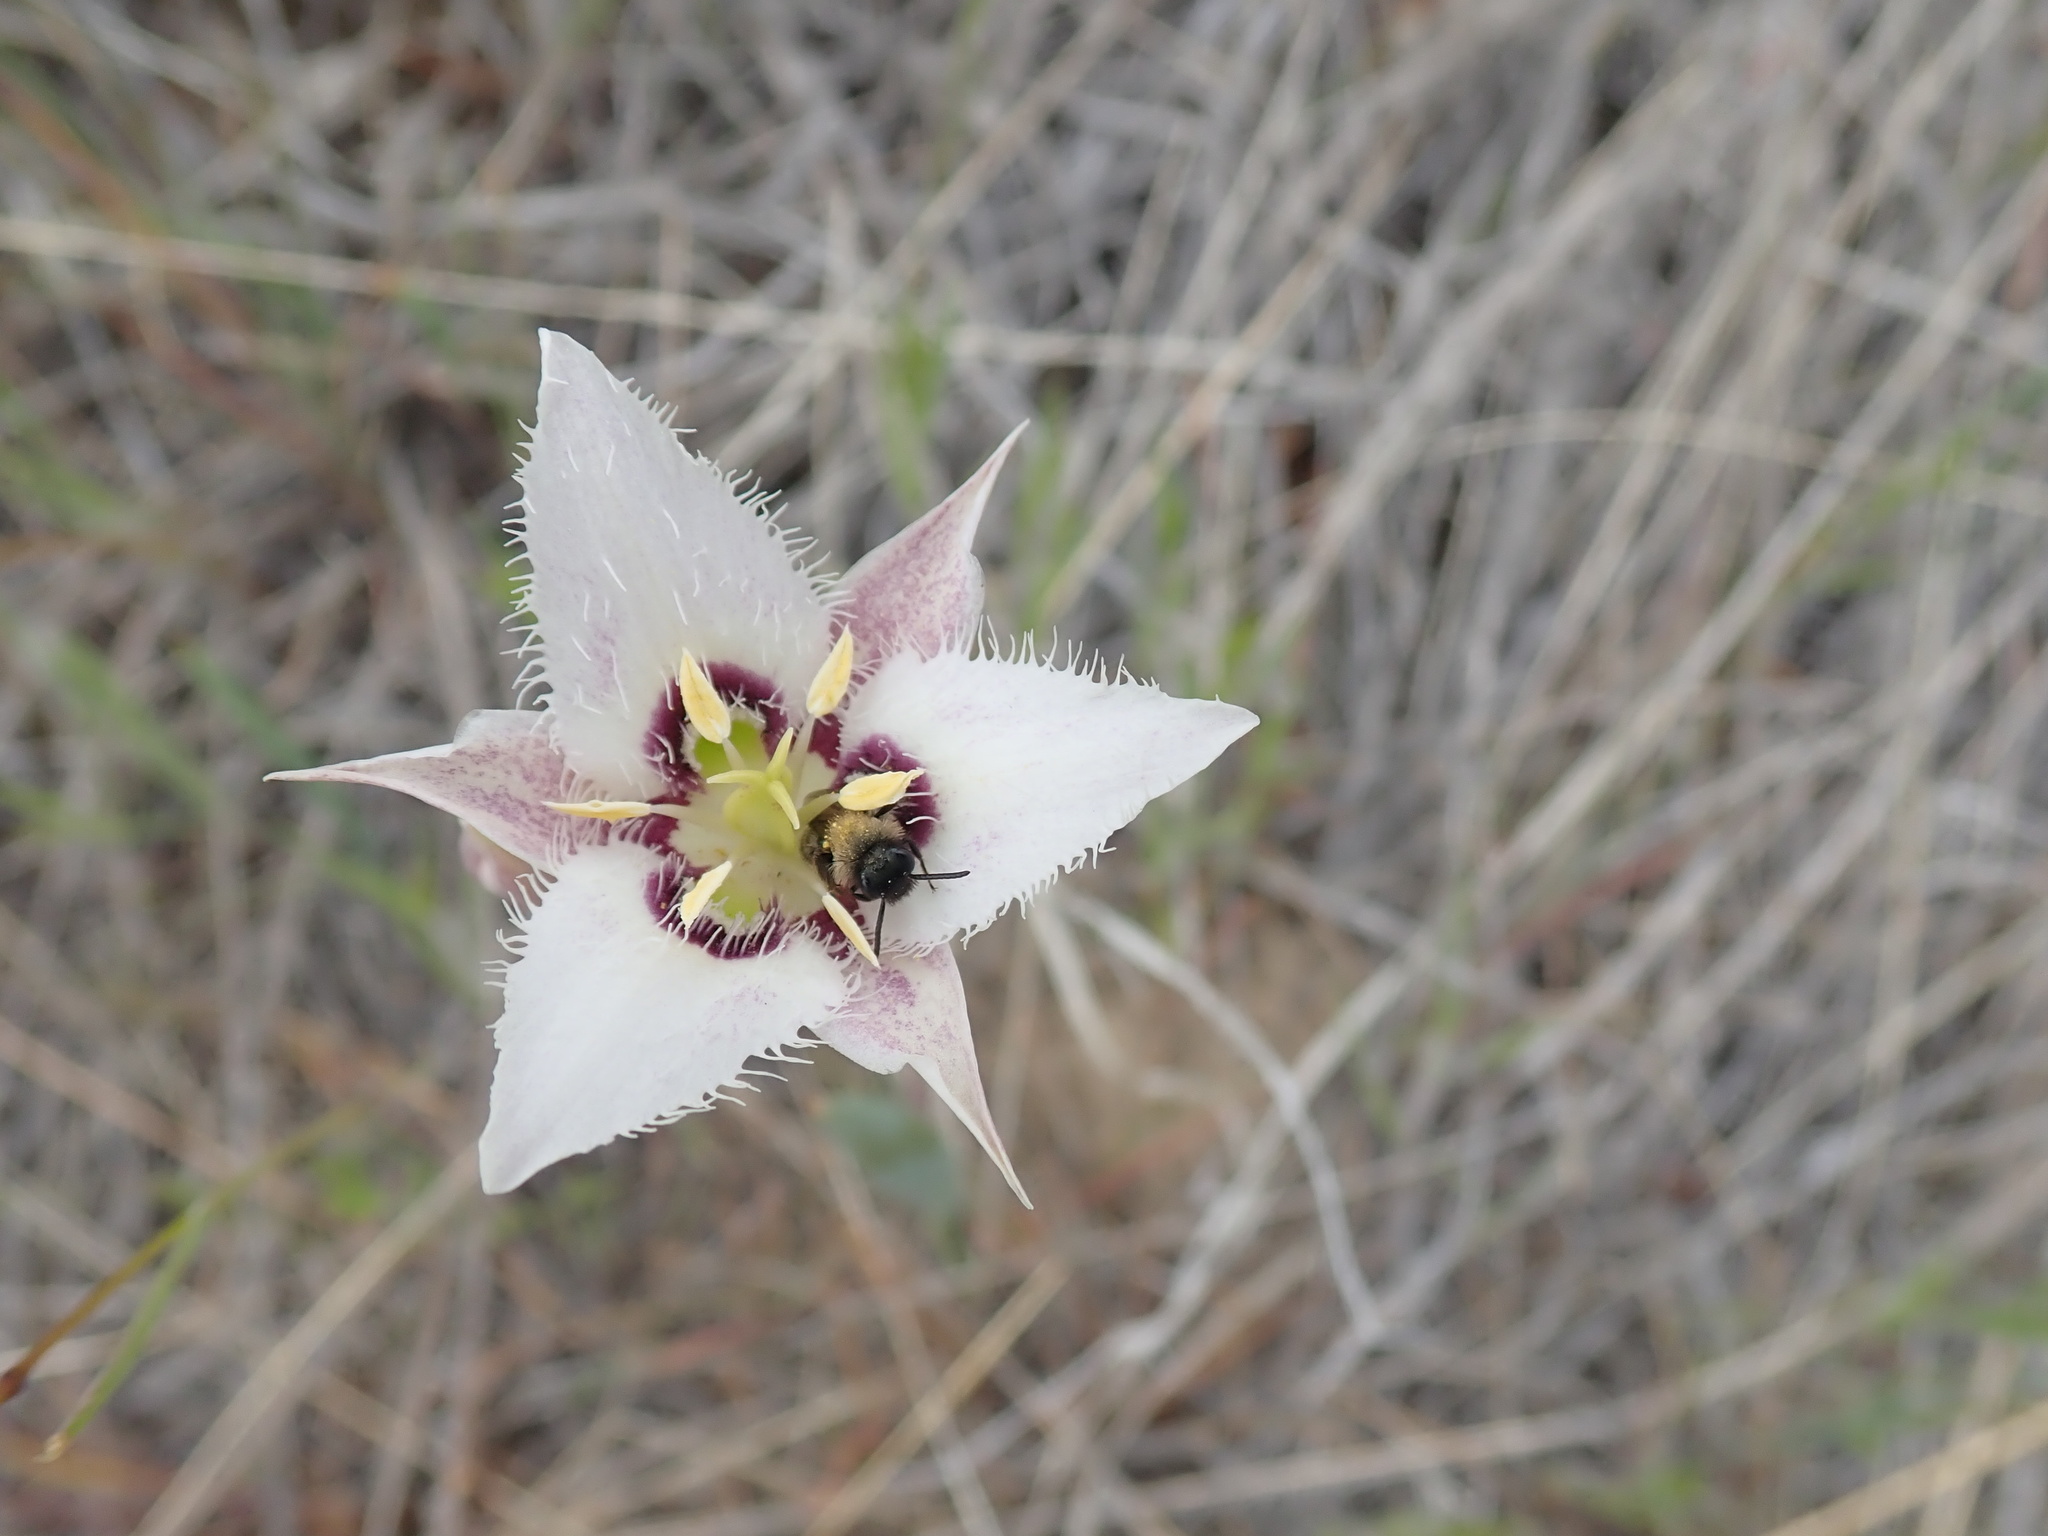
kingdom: Plantae
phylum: Tracheophyta
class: Liliopsida
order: Liliales
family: Liliaceae
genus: Calochortus
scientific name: Calochortus lyallii
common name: Lyall's mariposa lily
